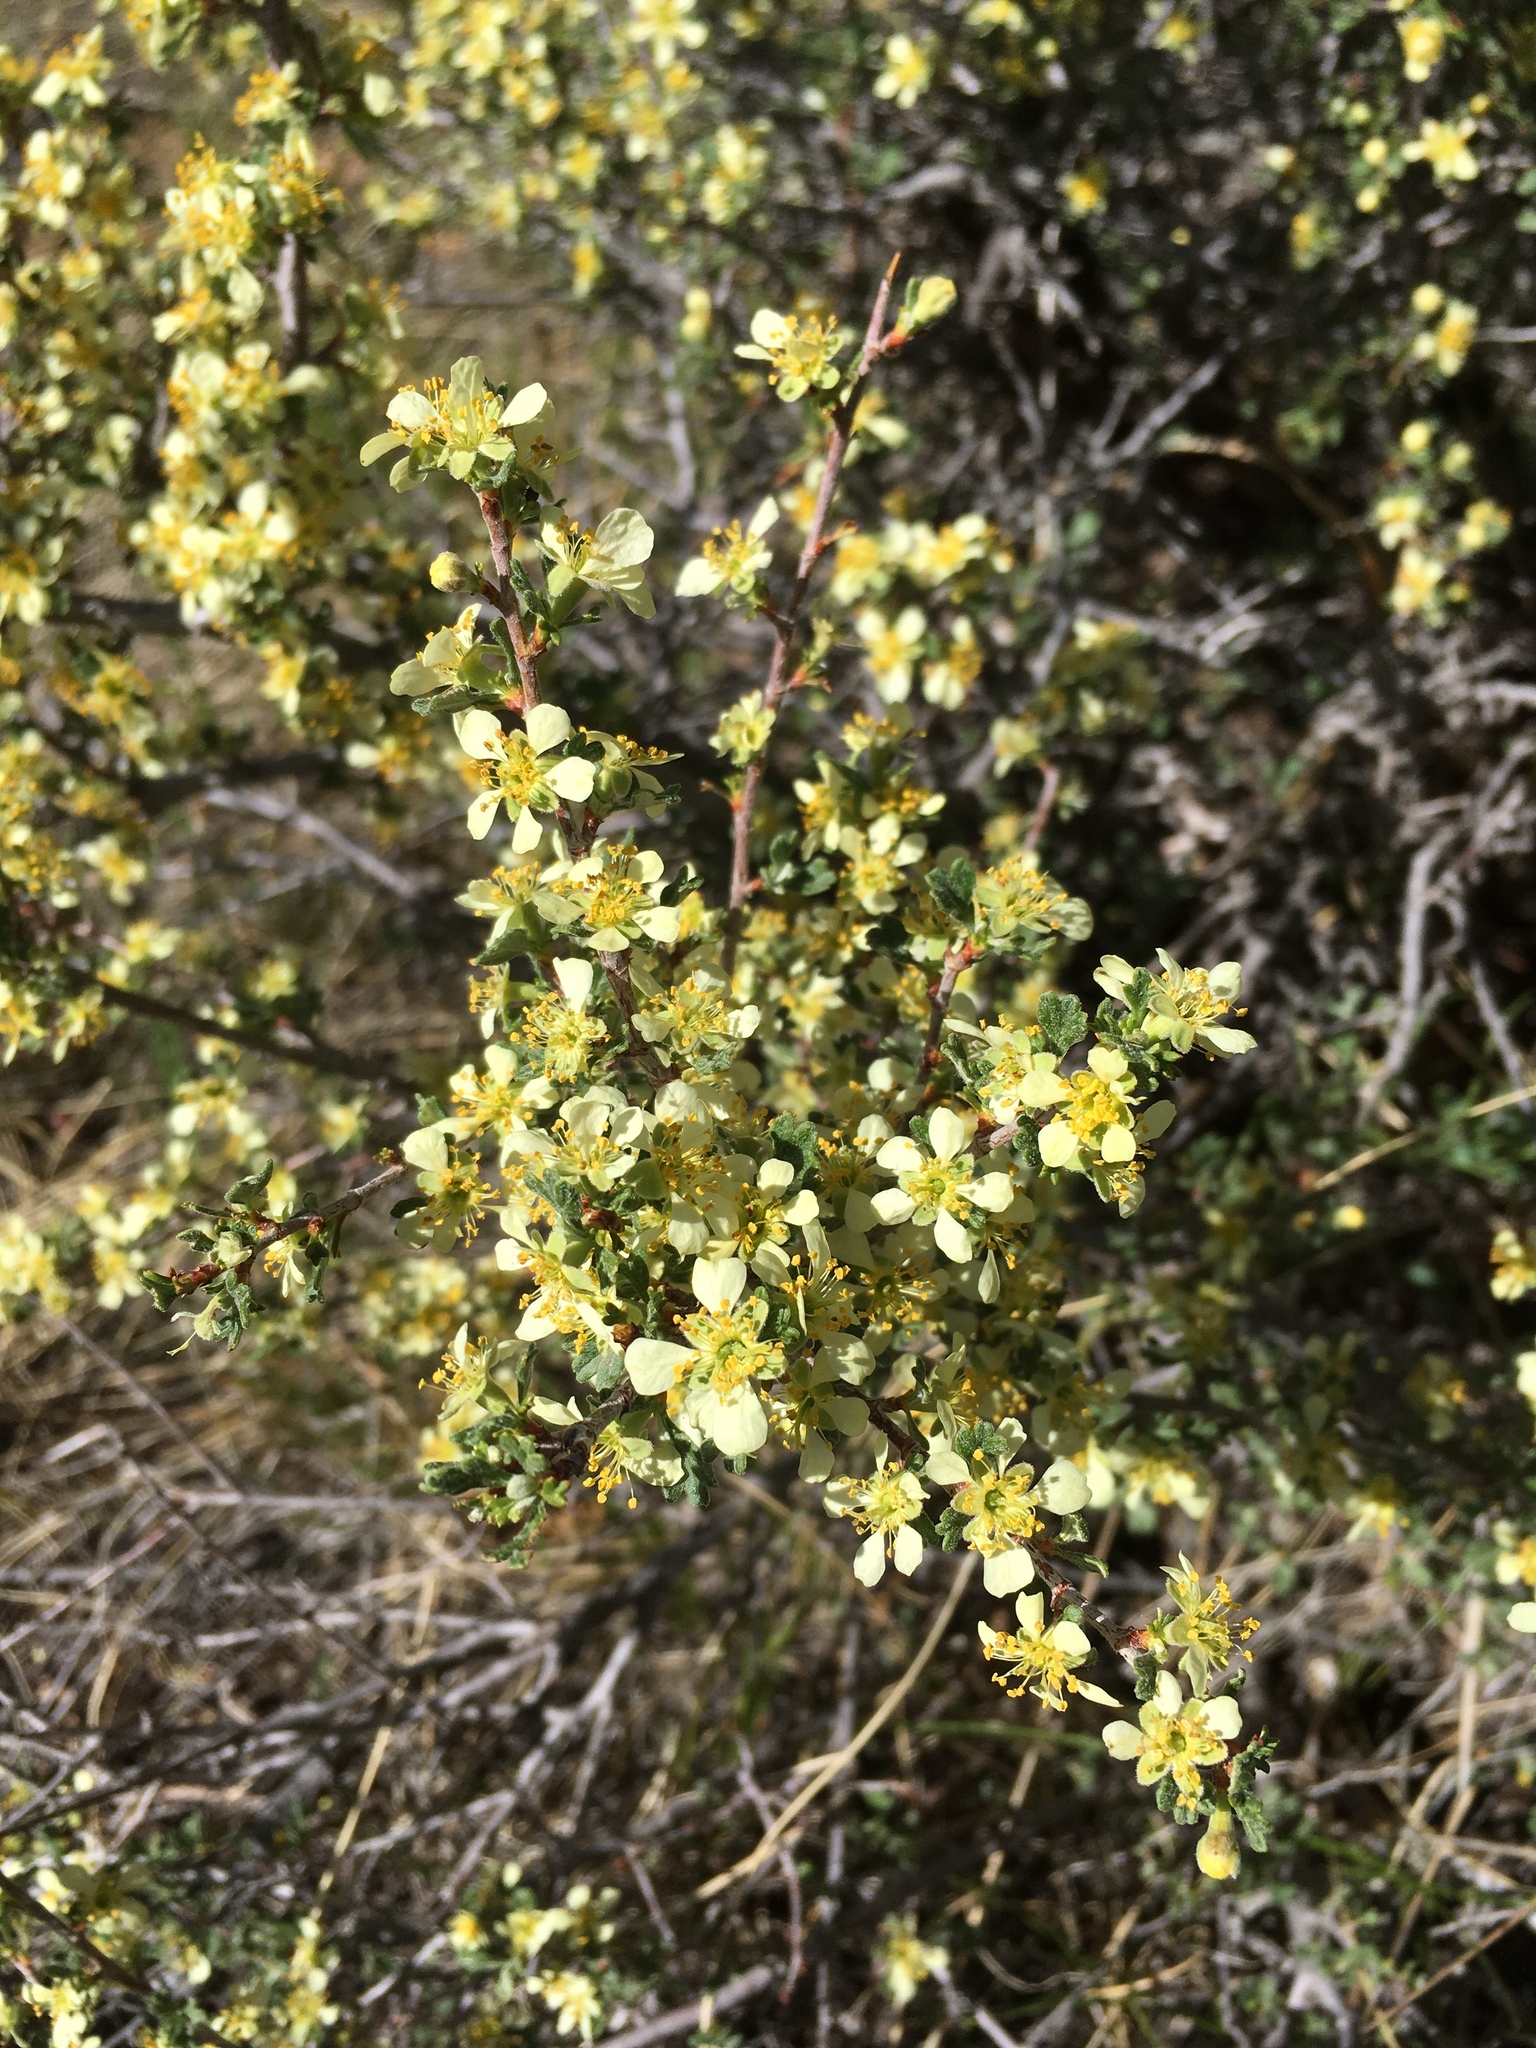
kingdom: Plantae
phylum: Tracheophyta
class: Magnoliopsida
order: Rosales
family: Rosaceae
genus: Purshia
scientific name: Purshia tridentata
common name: Antelope bitterbrush
